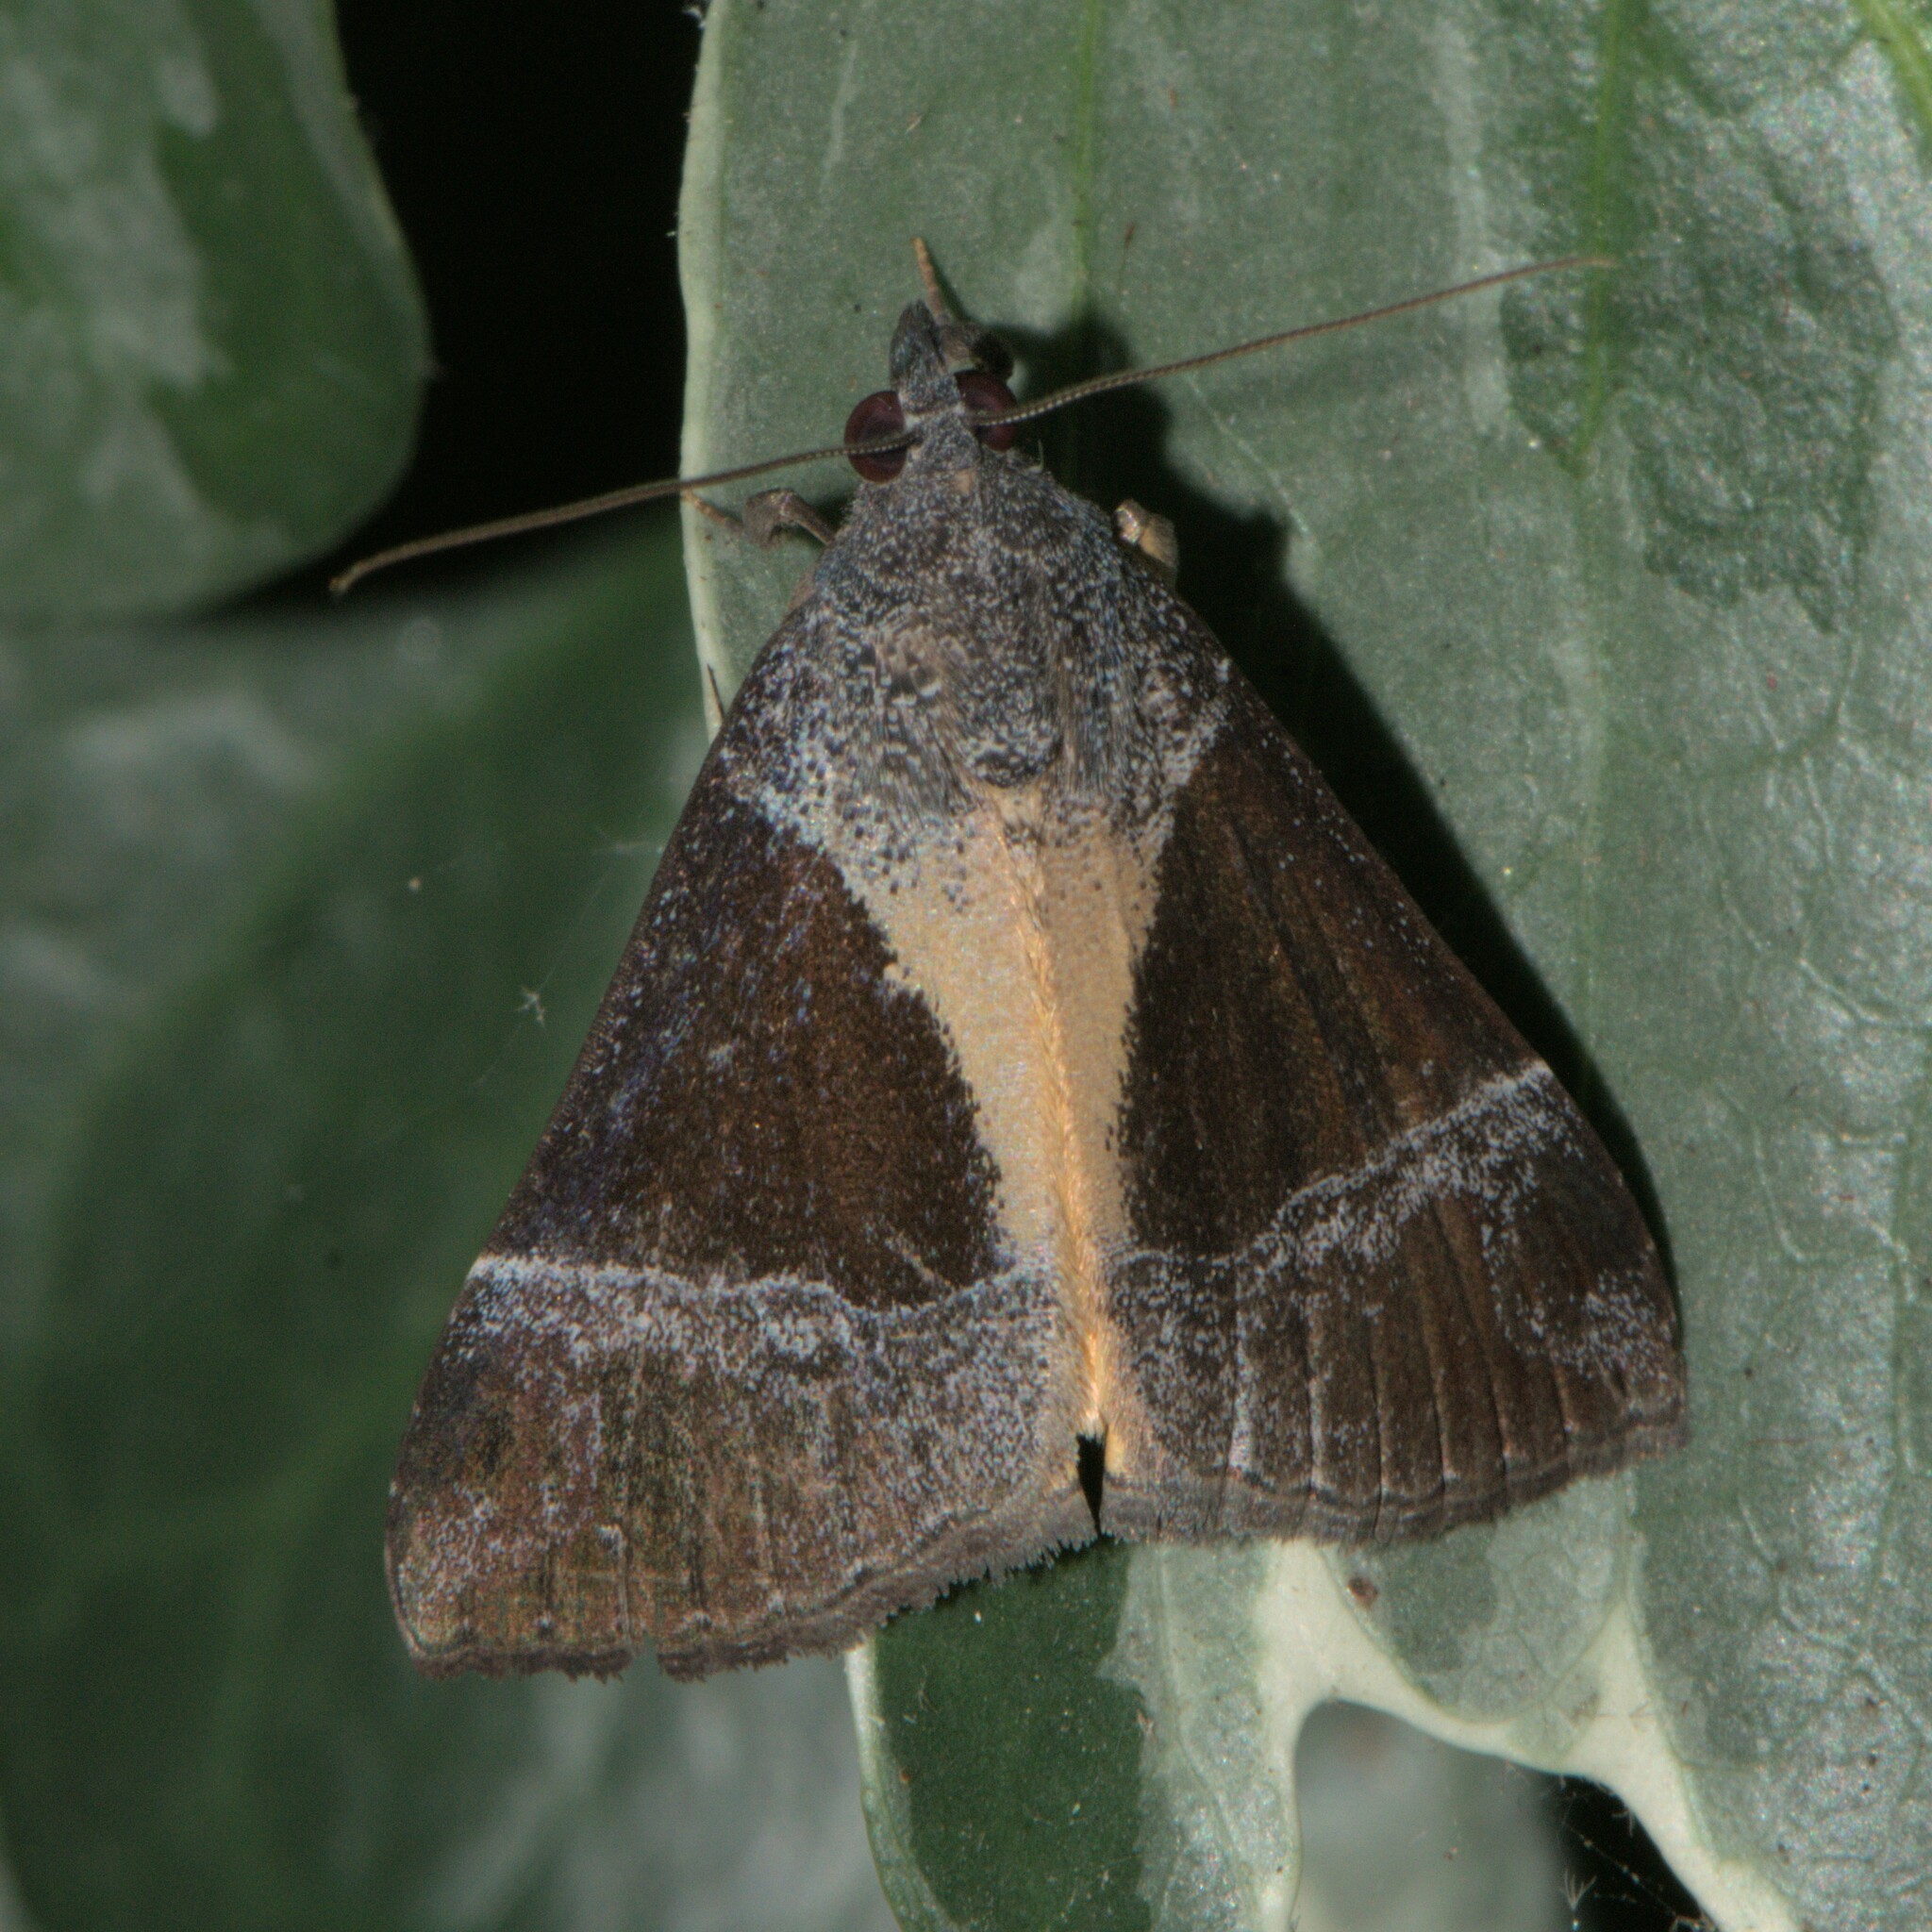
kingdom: Animalia
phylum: Arthropoda
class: Insecta
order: Lepidoptera
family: Erebidae
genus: Hypena
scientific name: Hypena amica
